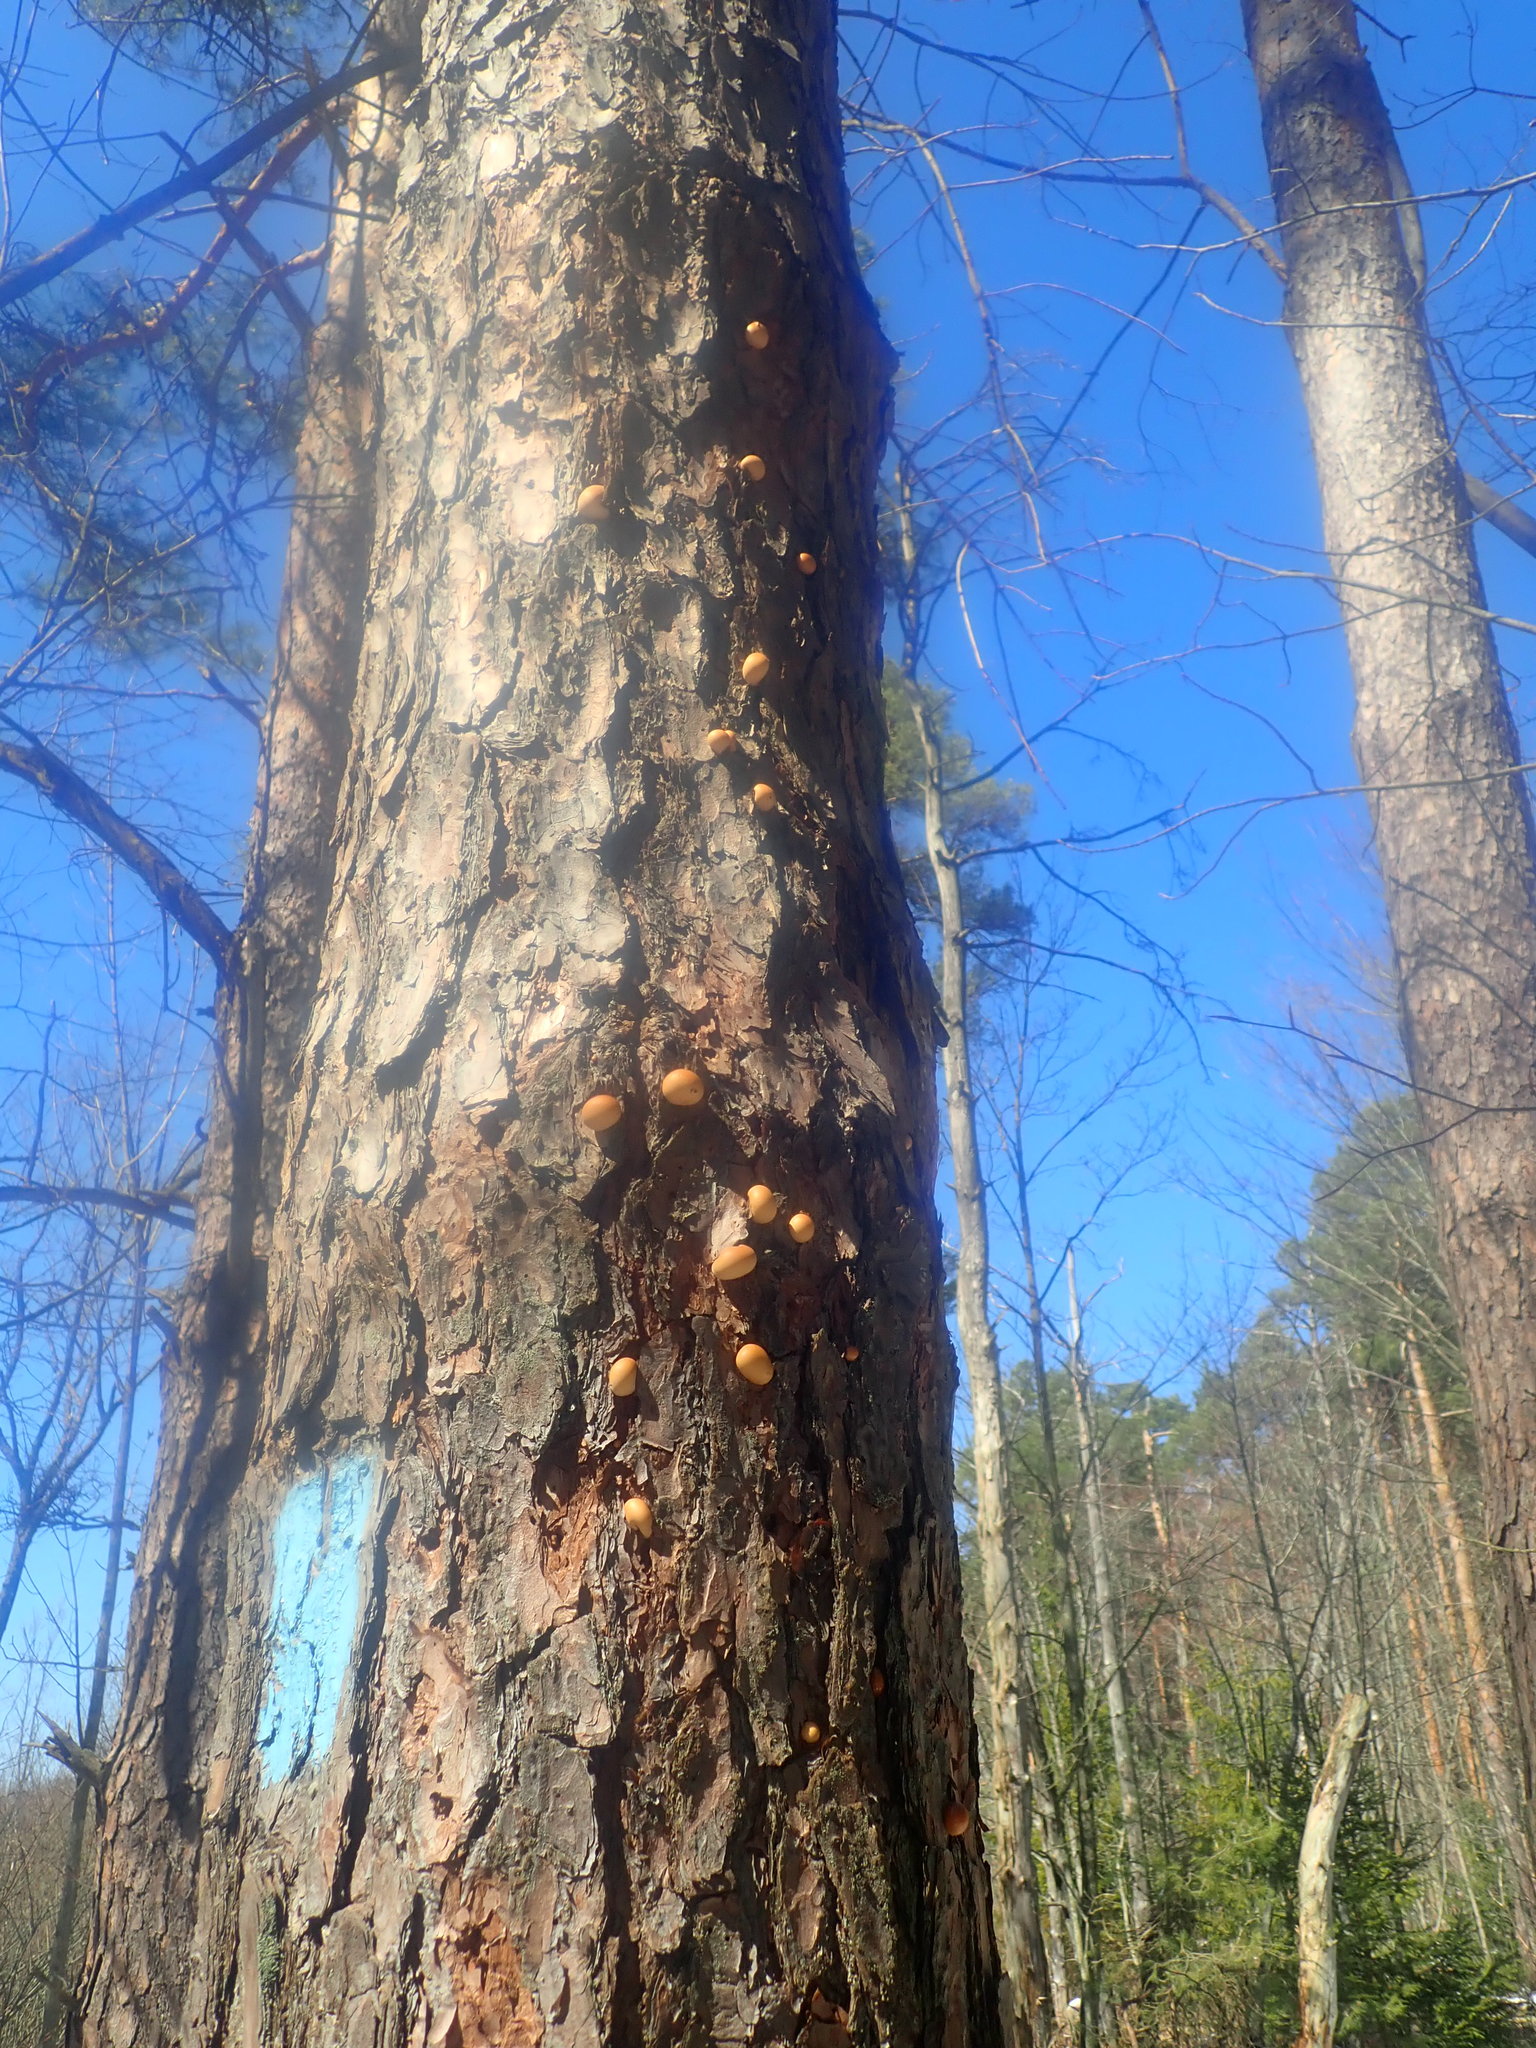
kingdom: Fungi
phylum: Basidiomycota
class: Agaricomycetes
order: Polyporales
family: Polyporaceae
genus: Cryptoporus
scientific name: Cryptoporus volvatus
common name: Veiled polypore
